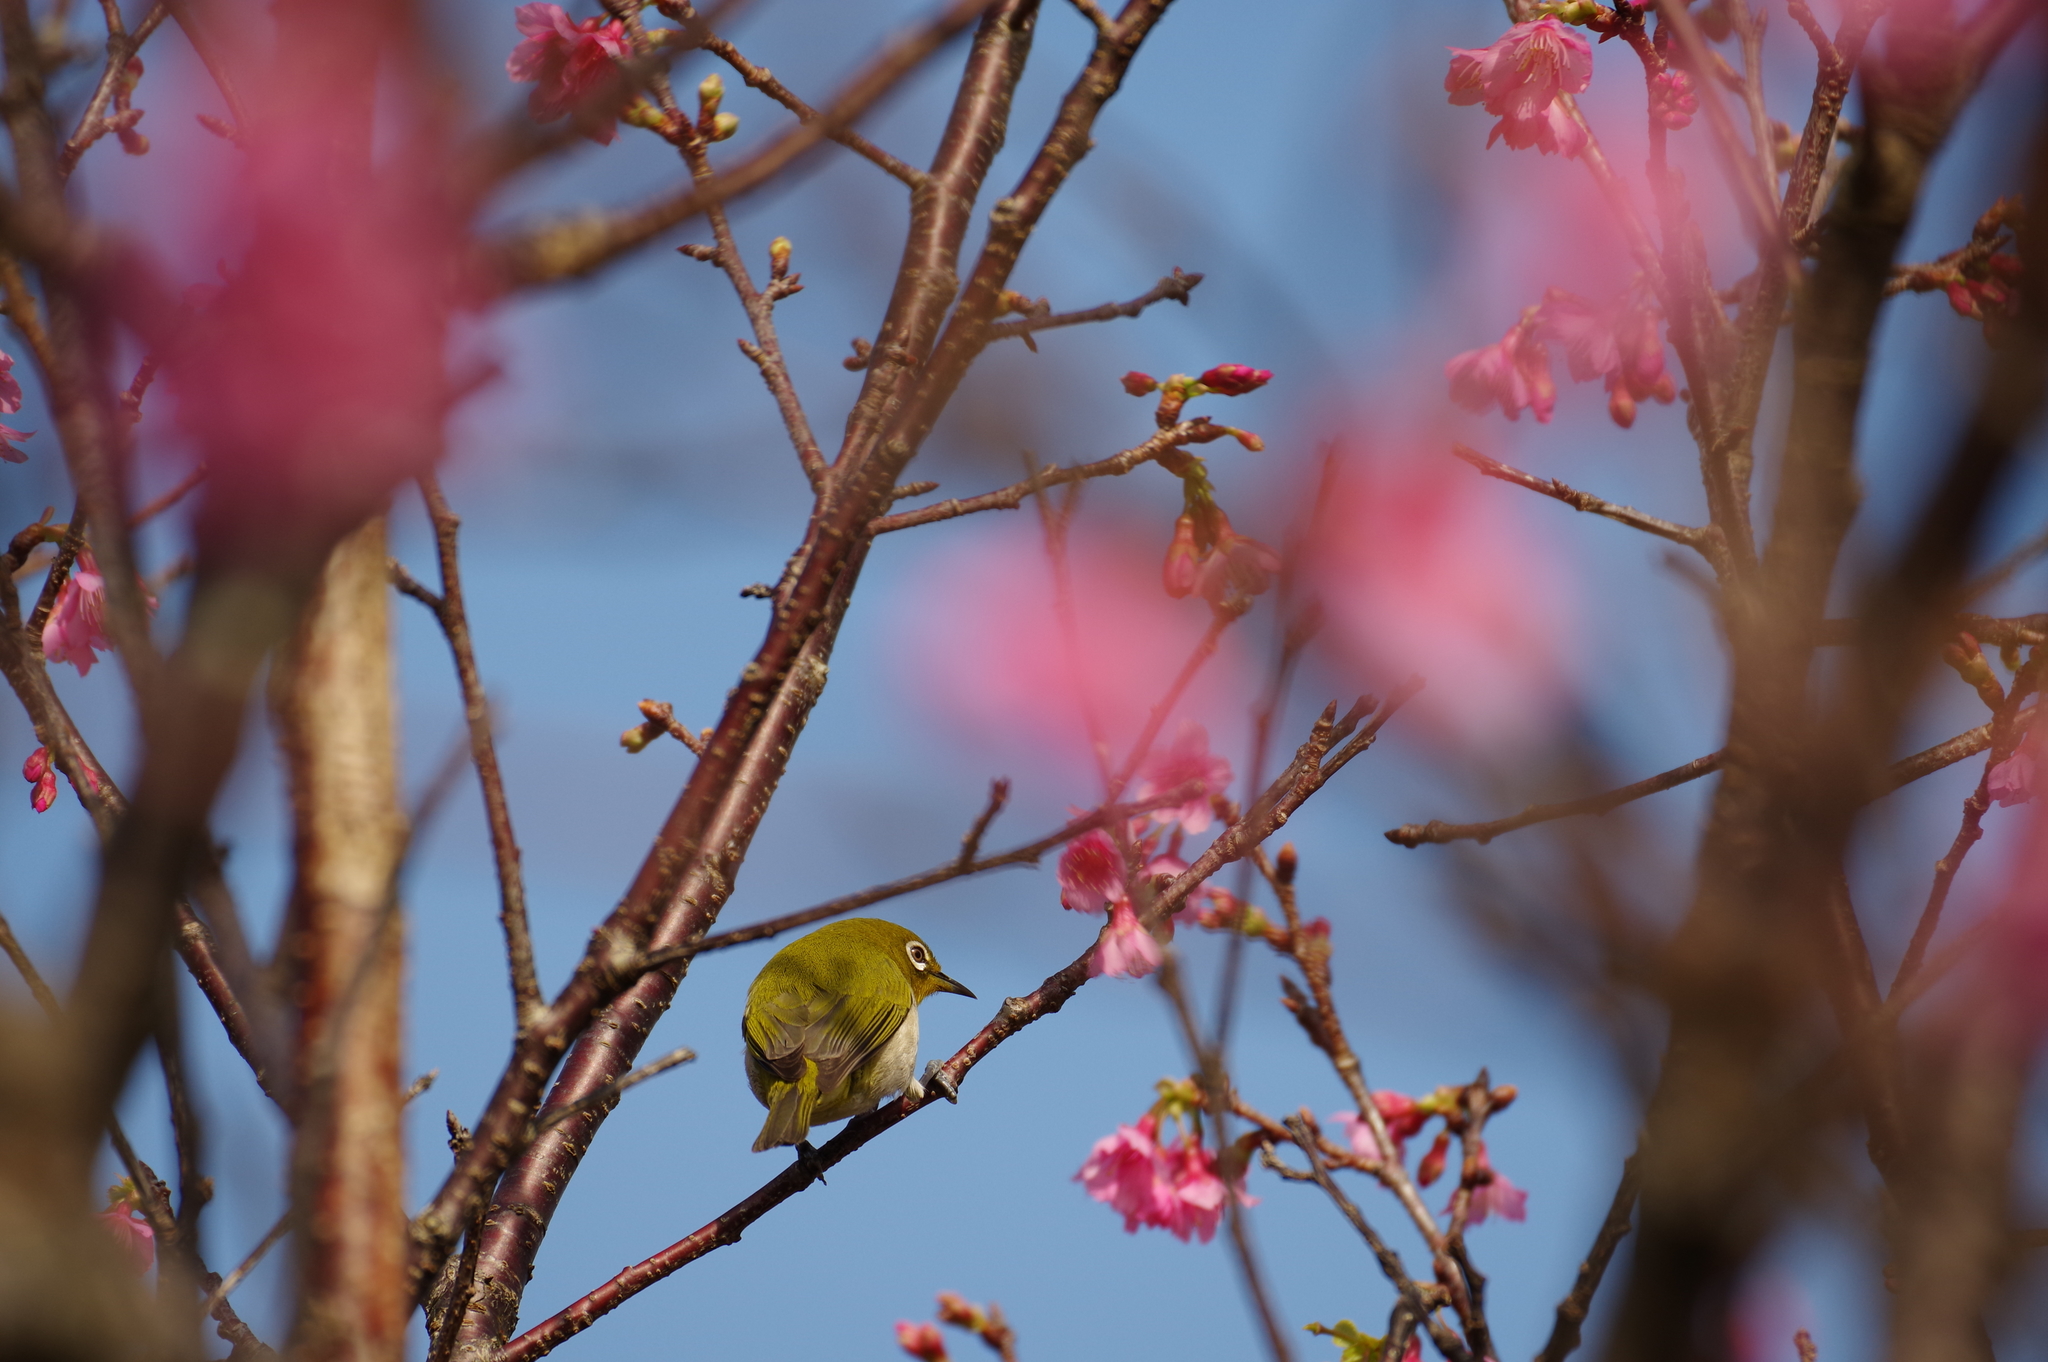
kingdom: Animalia
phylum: Chordata
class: Aves
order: Passeriformes
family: Zosteropidae
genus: Zosterops
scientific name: Zosterops japonicus
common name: Japanese white-eye
